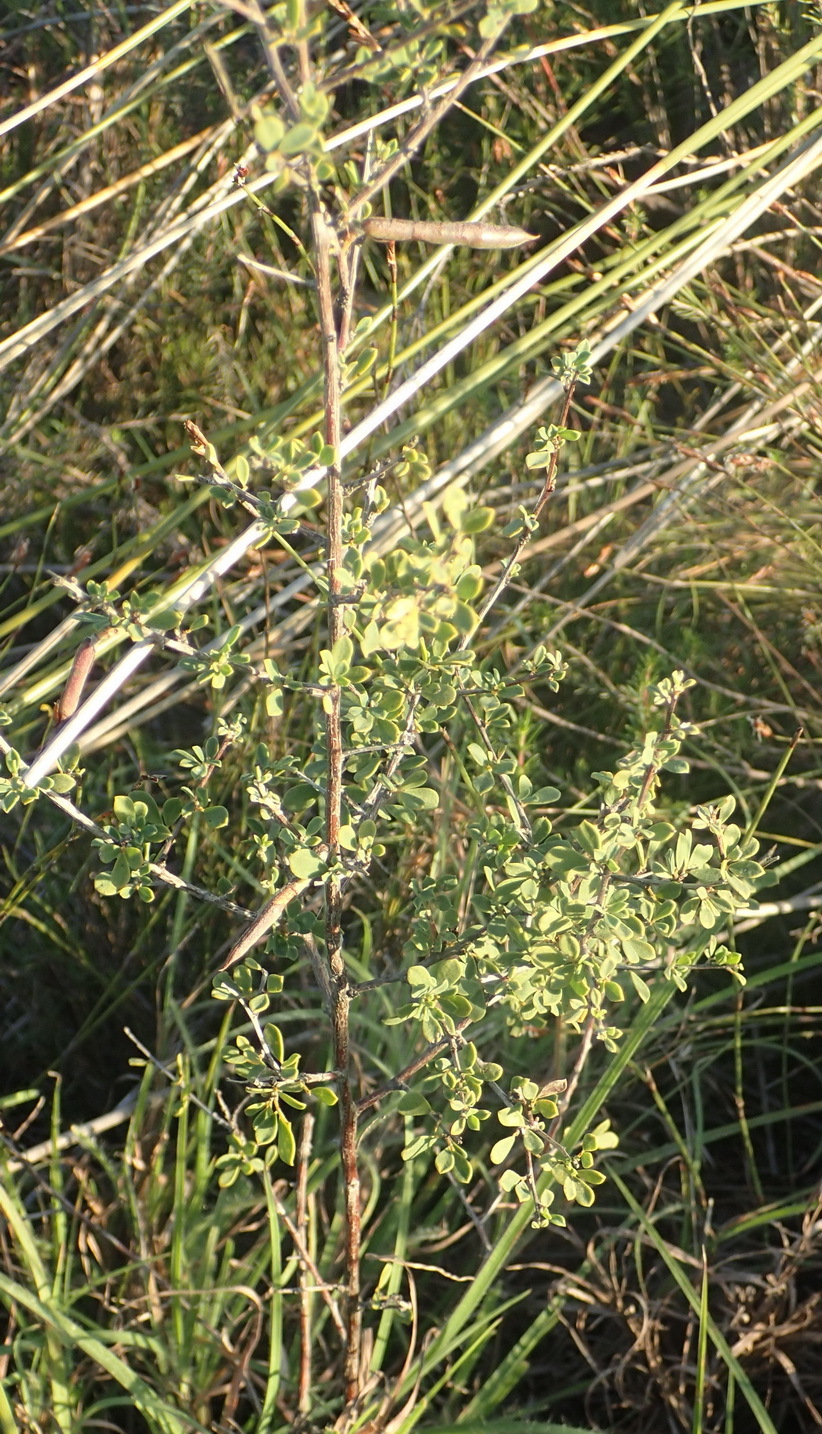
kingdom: Plantae
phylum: Tracheophyta
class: Magnoliopsida
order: Fabales
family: Fabaceae
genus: Indigofera
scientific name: Indigofera denudata
